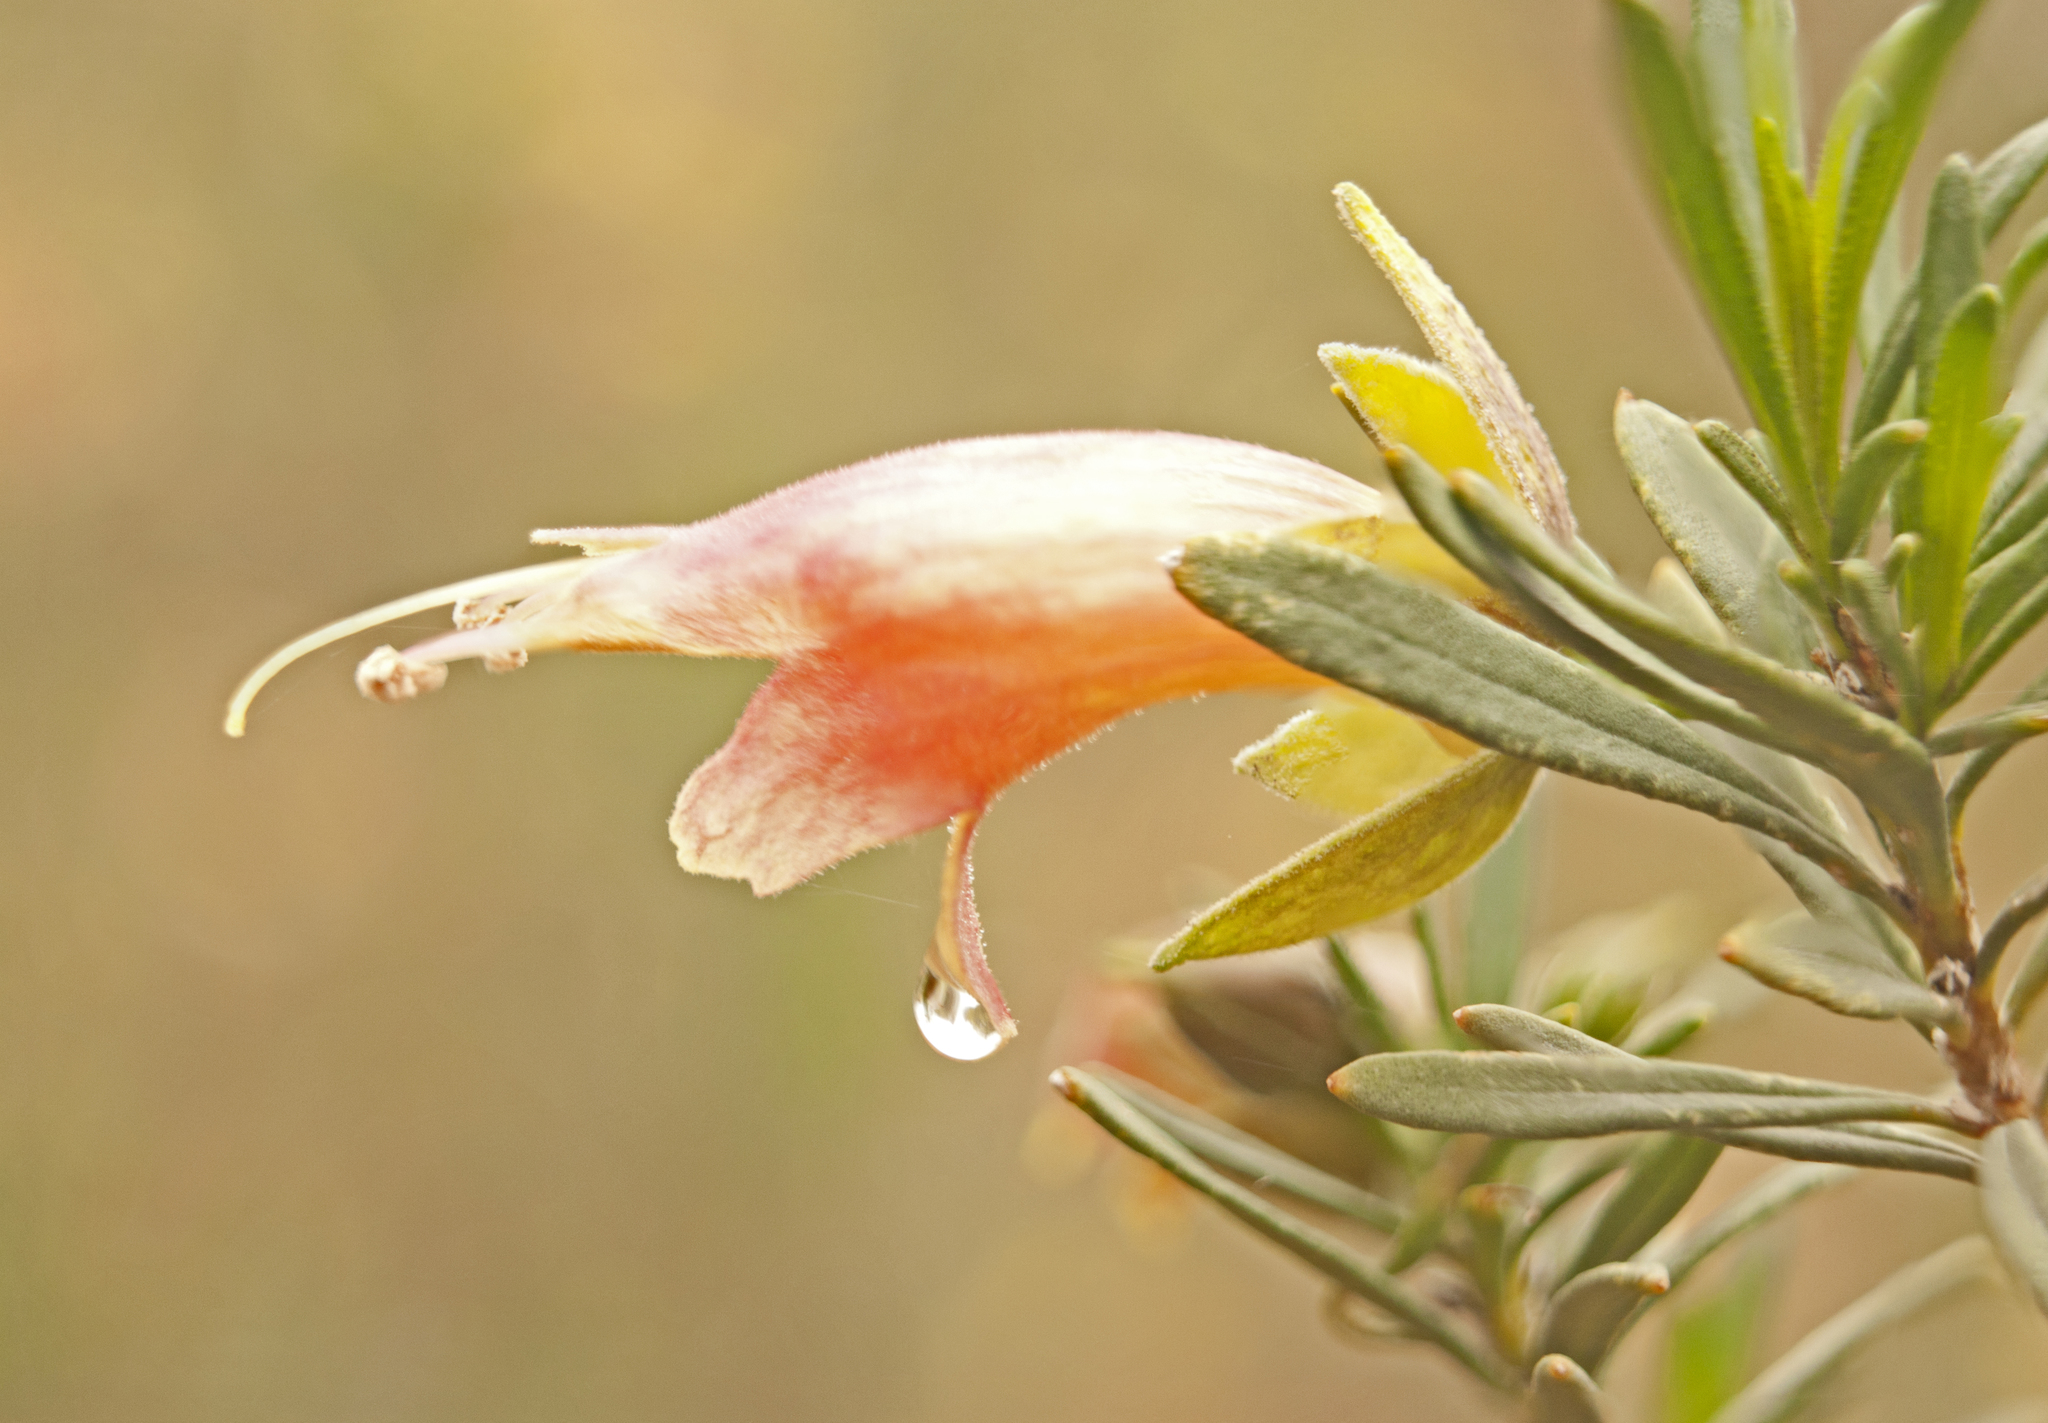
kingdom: Plantae
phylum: Tracheophyta
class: Magnoliopsida
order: Lamiales
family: Scrophulariaceae
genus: Eremophila
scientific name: Eremophila latrobei
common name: Crimson turkeybush
